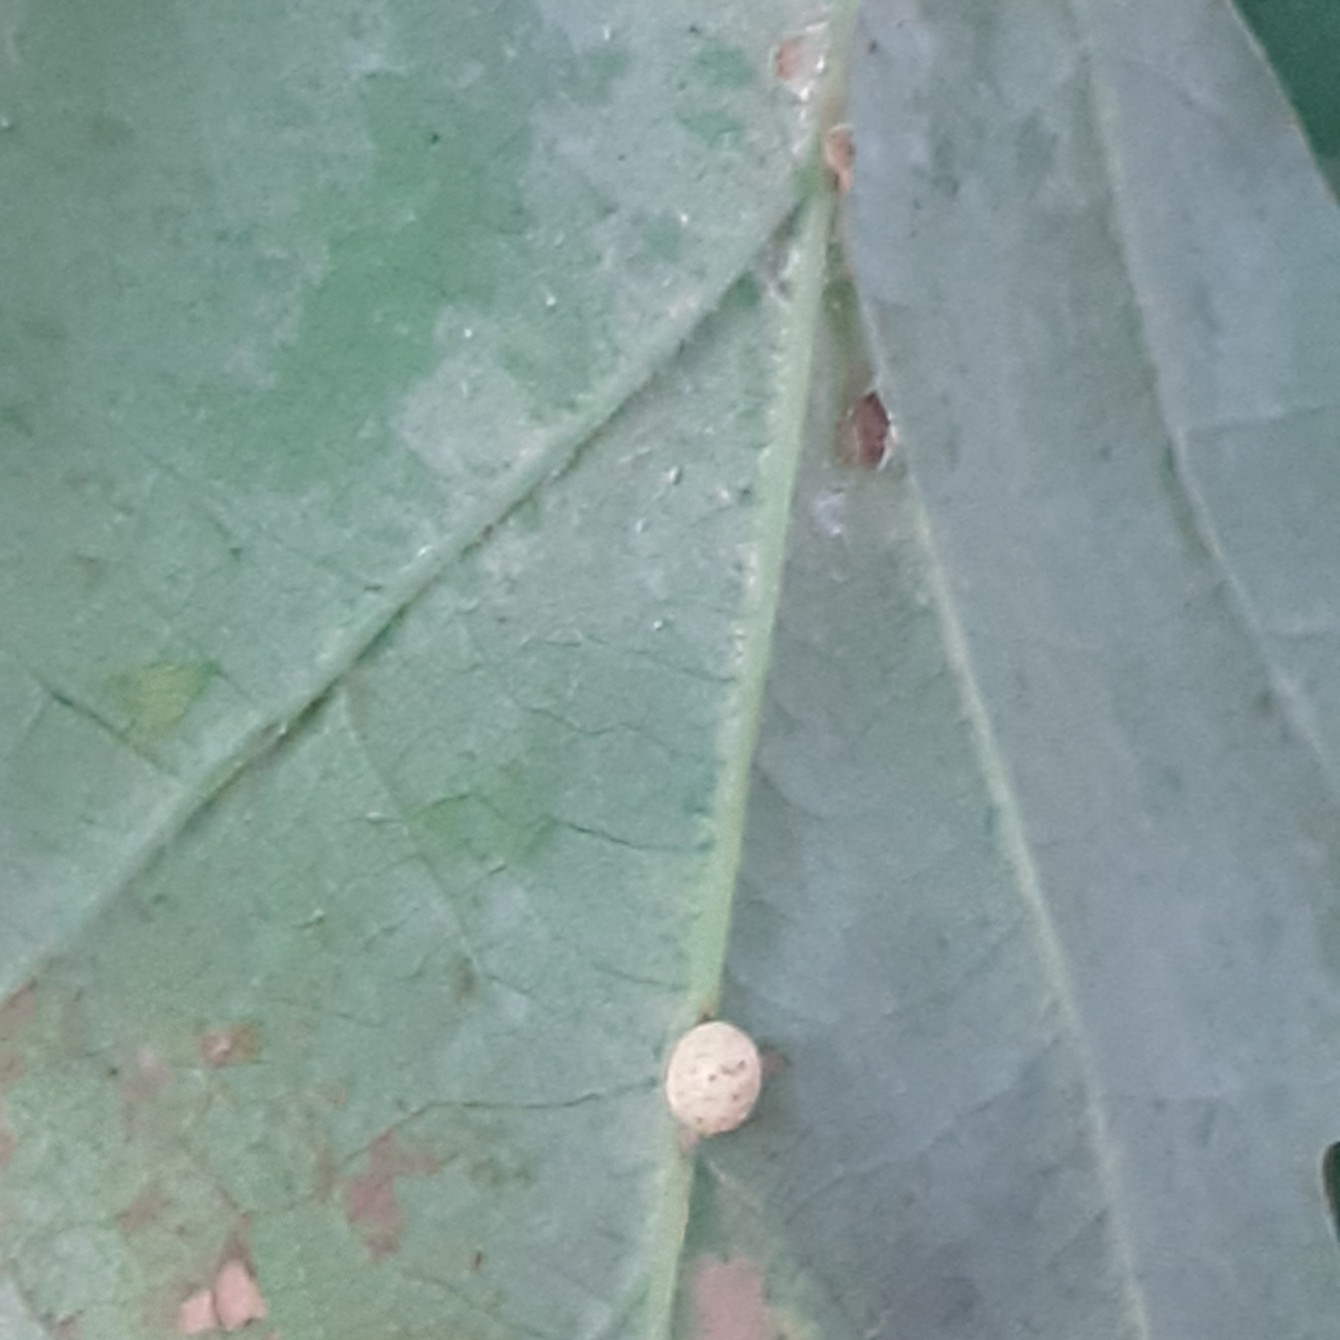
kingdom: Animalia
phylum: Arthropoda
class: Insecta
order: Hymenoptera
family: Cynipidae
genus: Neuroterus
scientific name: Neuroterus anthracinus
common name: Oyster gall
